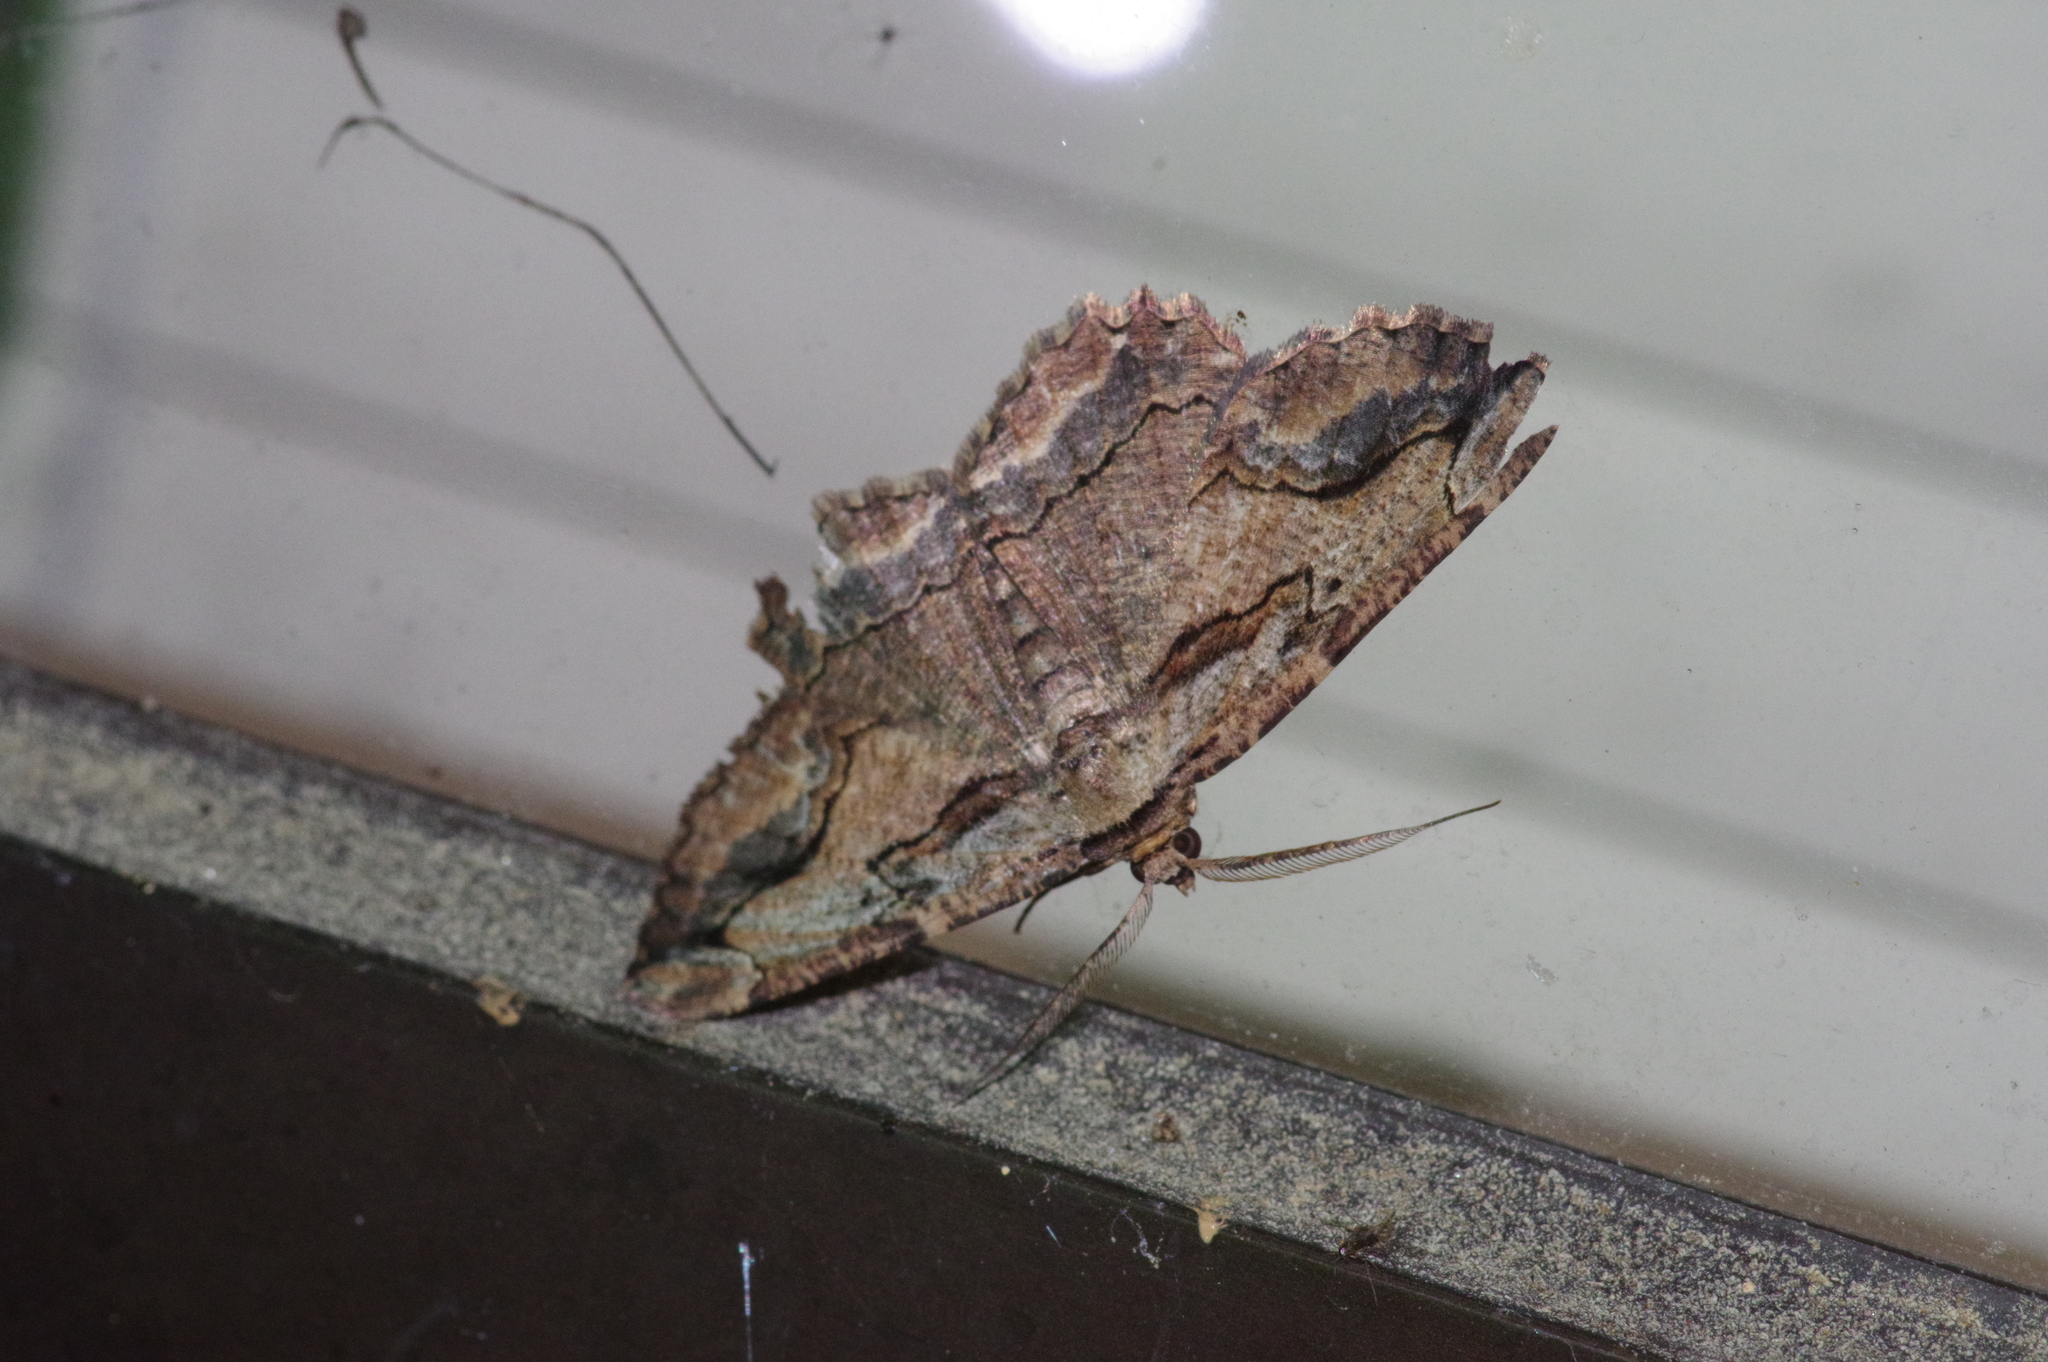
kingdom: Animalia
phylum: Arthropoda
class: Insecta
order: Lepidoptera
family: Geometridae
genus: Menophra
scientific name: Menophra senilis
